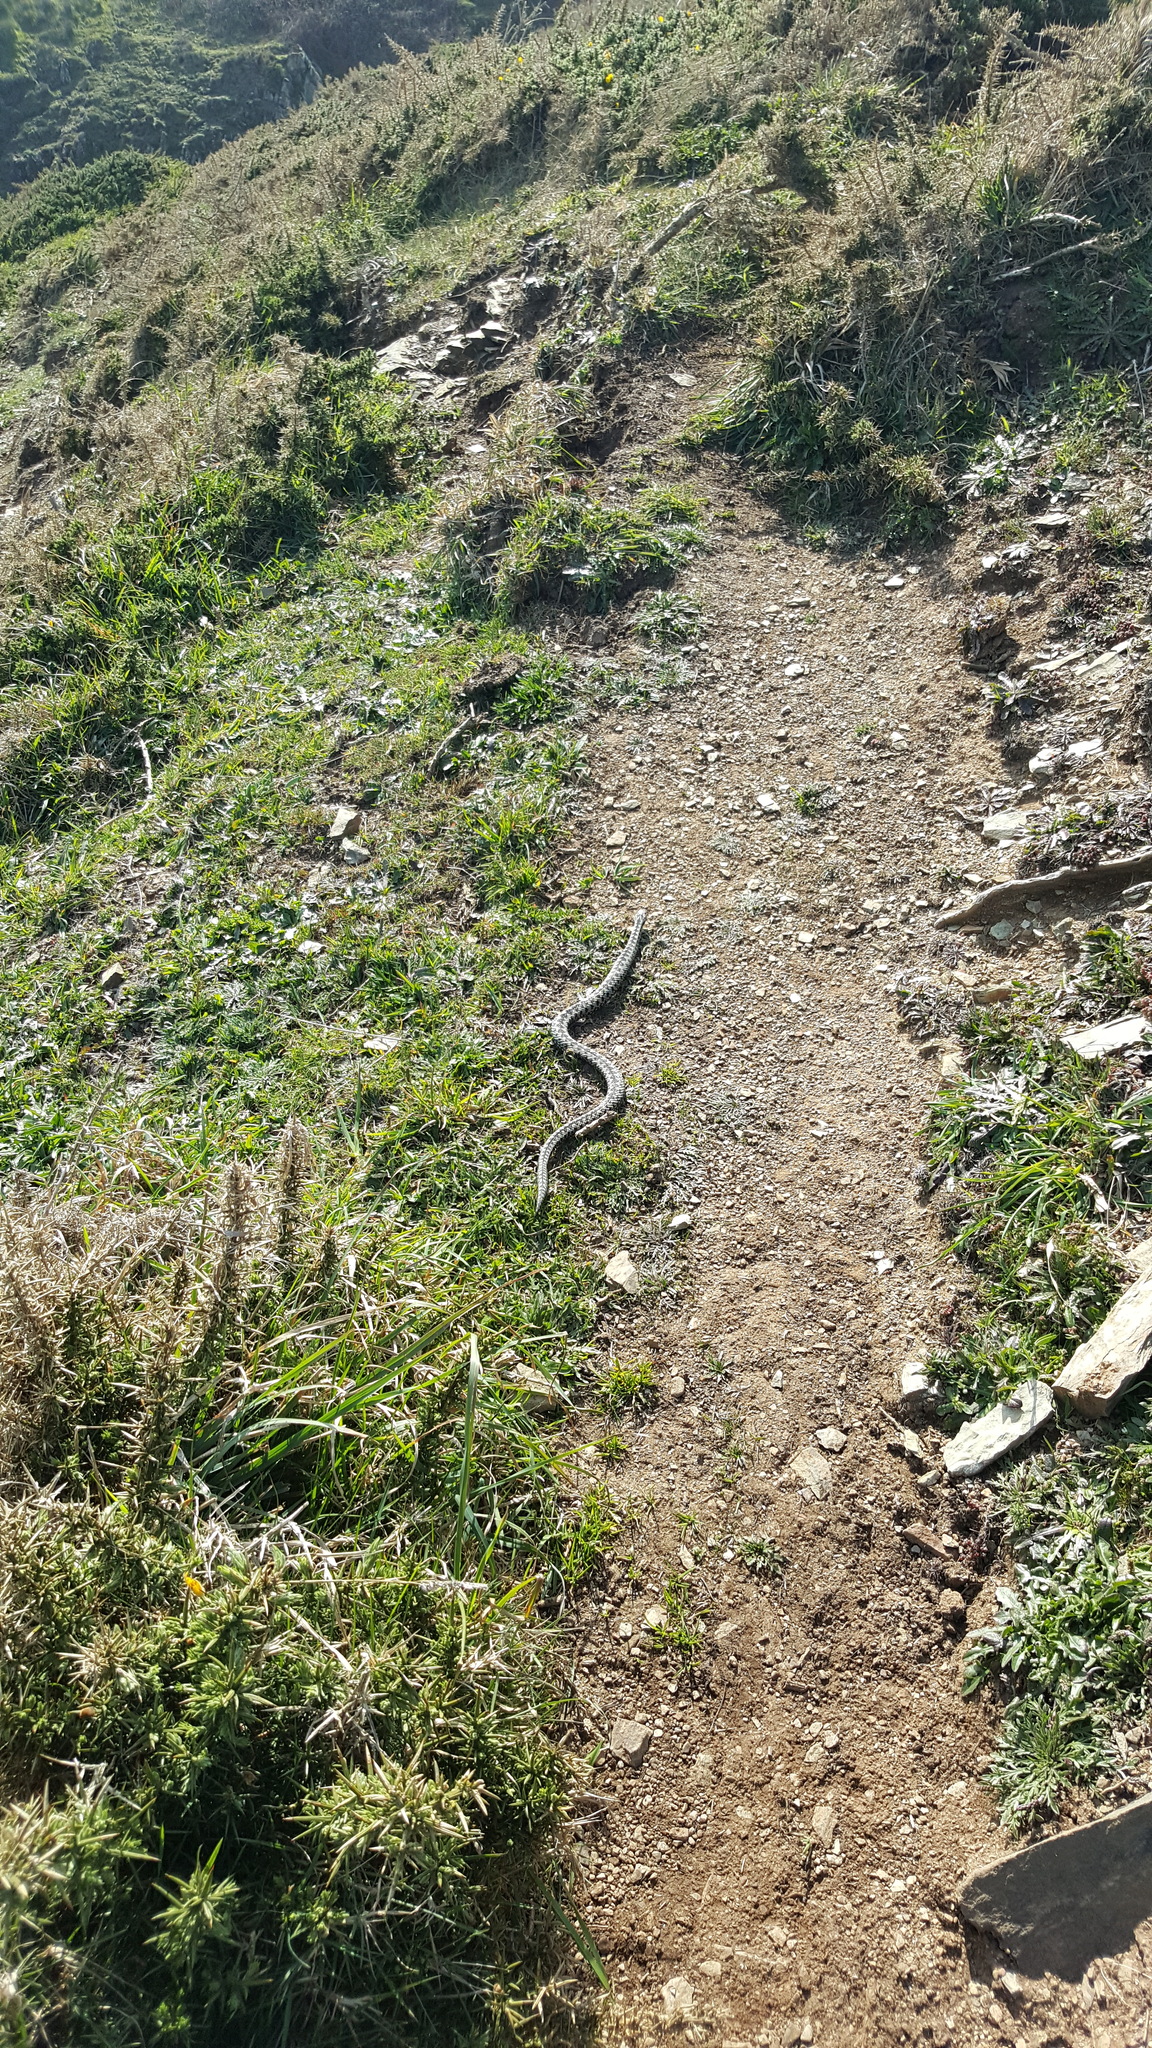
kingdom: Animalia
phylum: Chordata
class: Squamata
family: Viperidae
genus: Vipera
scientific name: Vipera berus
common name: Adder
